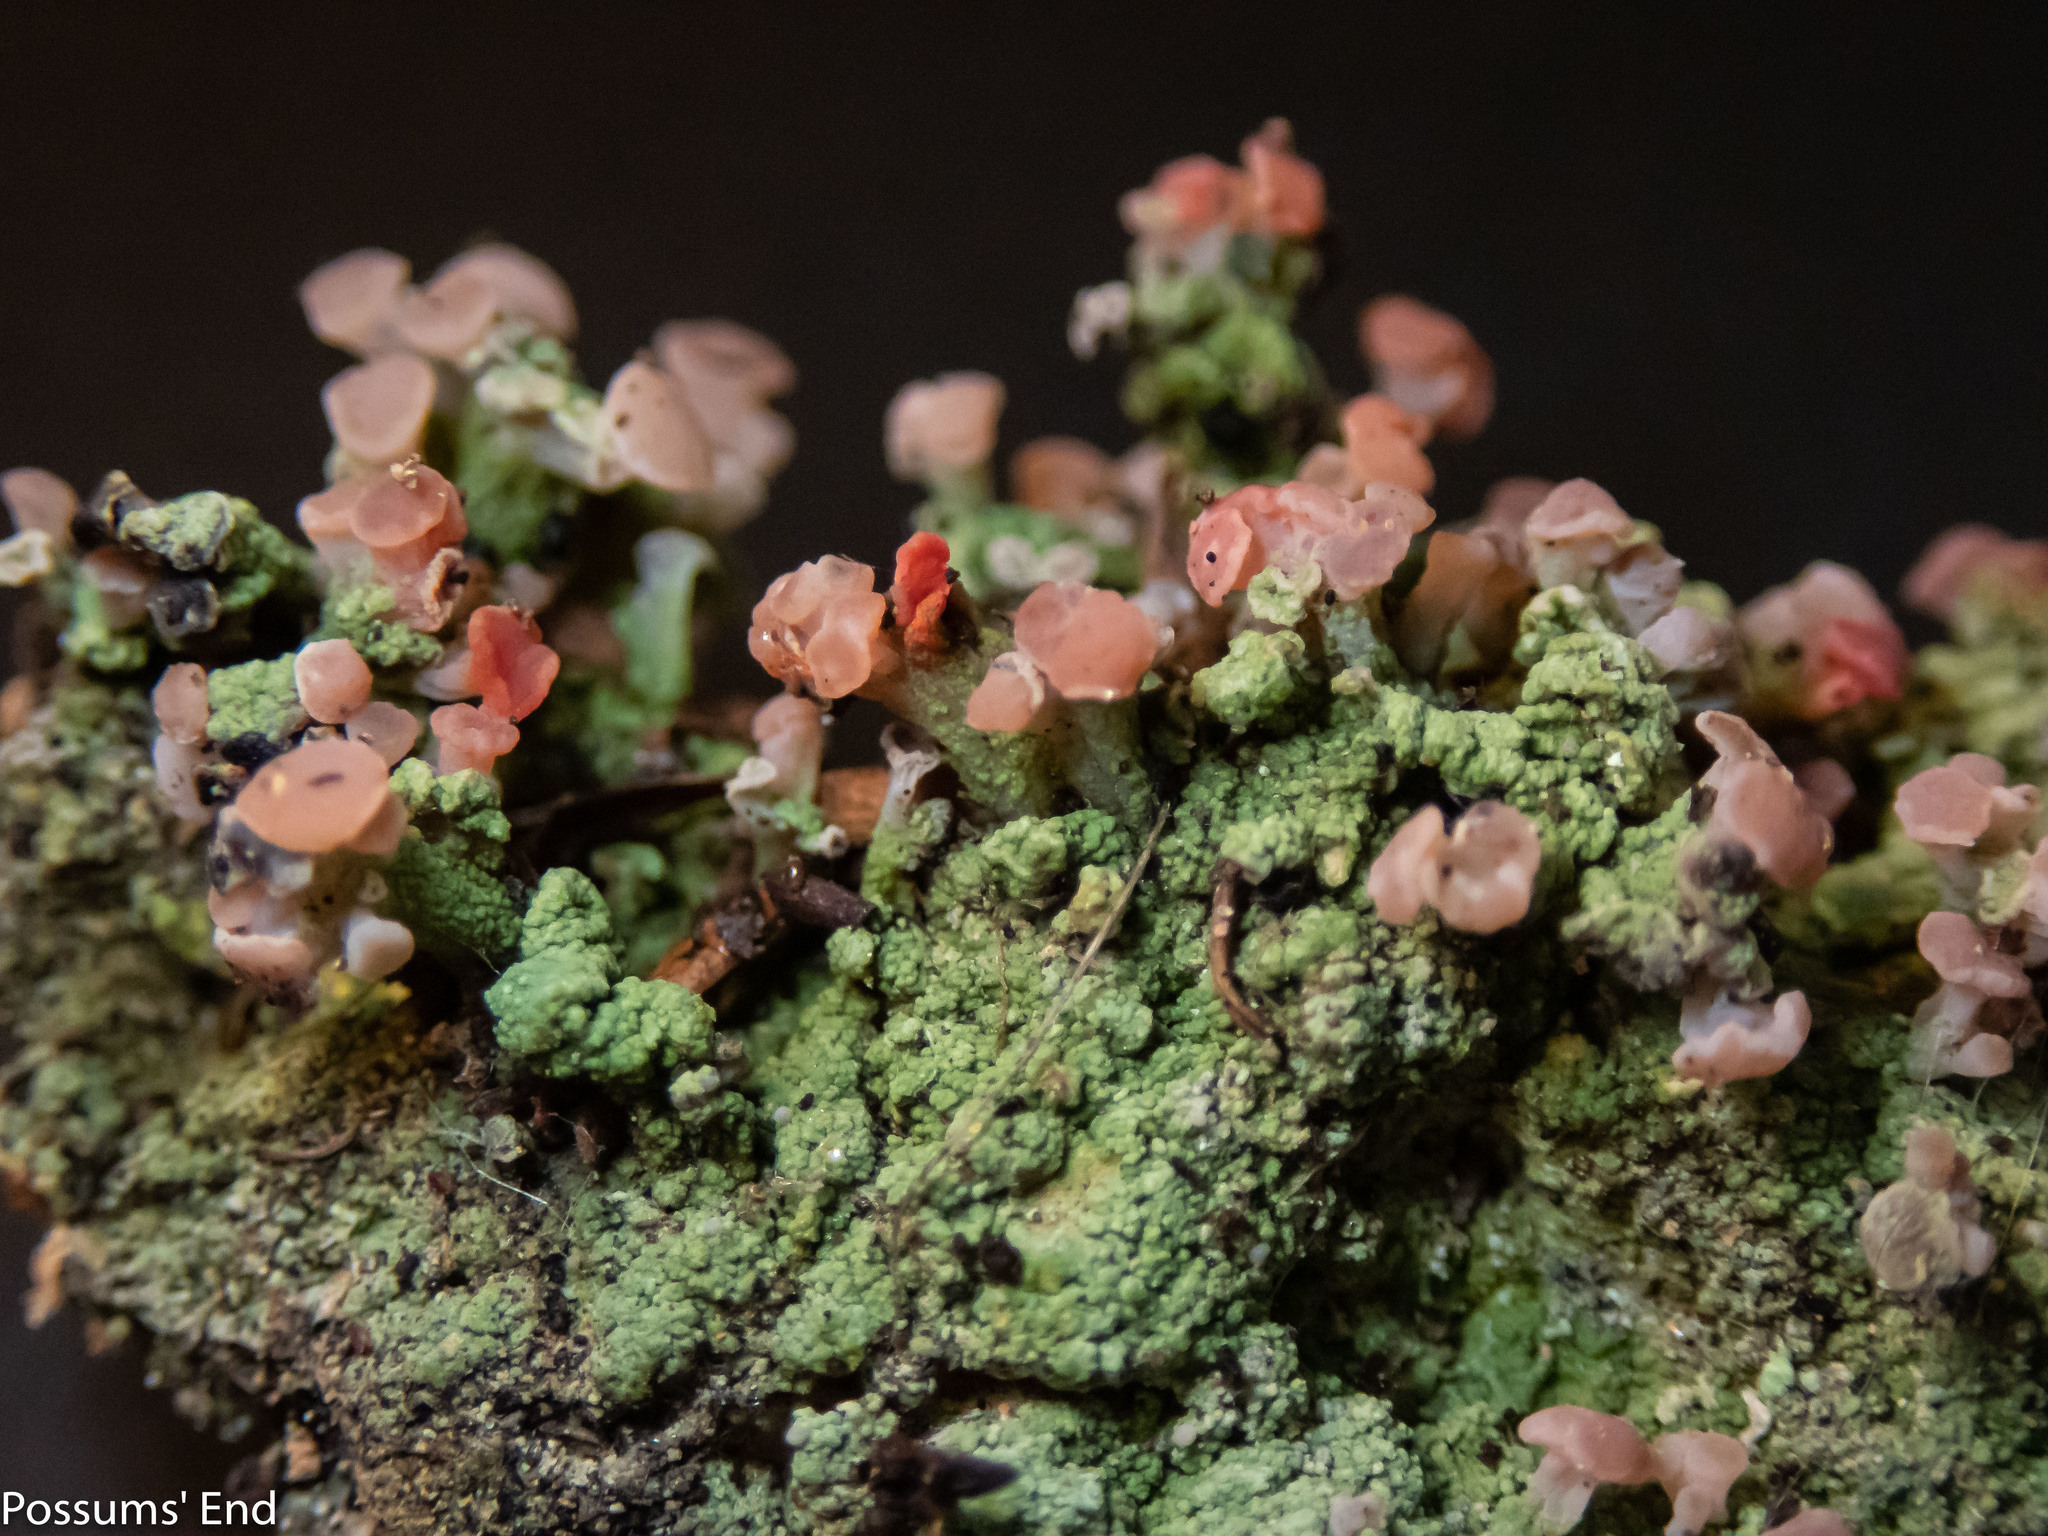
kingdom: Fungi
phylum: Ascomycota
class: Lecanoromycetes
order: Baeomycetales
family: Baeomycetaceae
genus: Baeomyces
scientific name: Baeomyces heteromorphus
